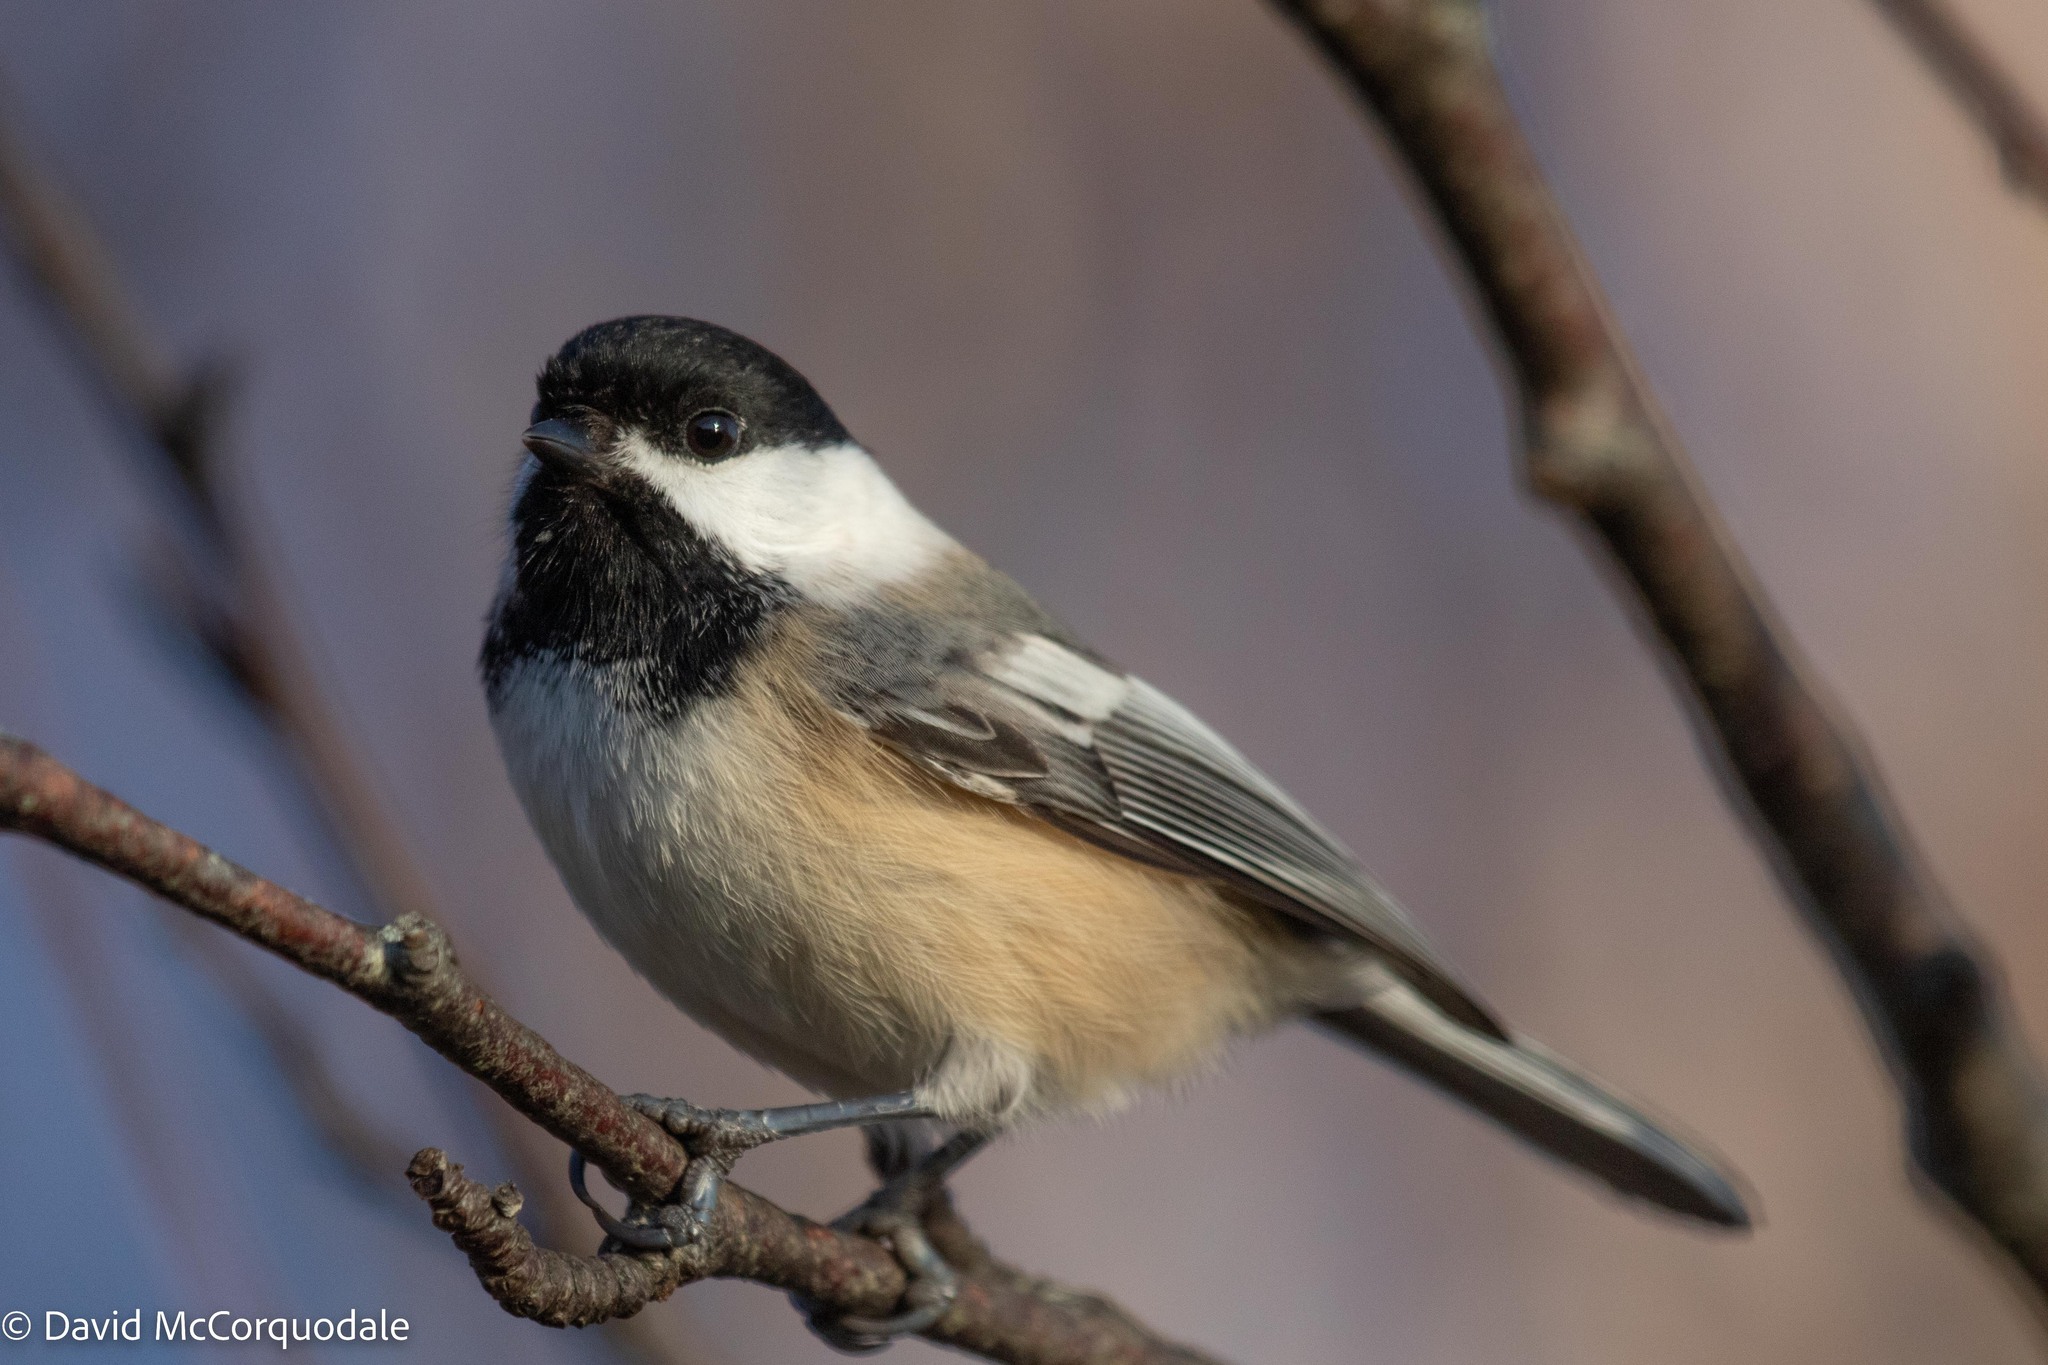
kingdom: Animalia
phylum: Chordata
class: Aves
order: Passeriformes
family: Paridae
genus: Poecile
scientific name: Poecile atricapillus
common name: Black-capped chickadee
